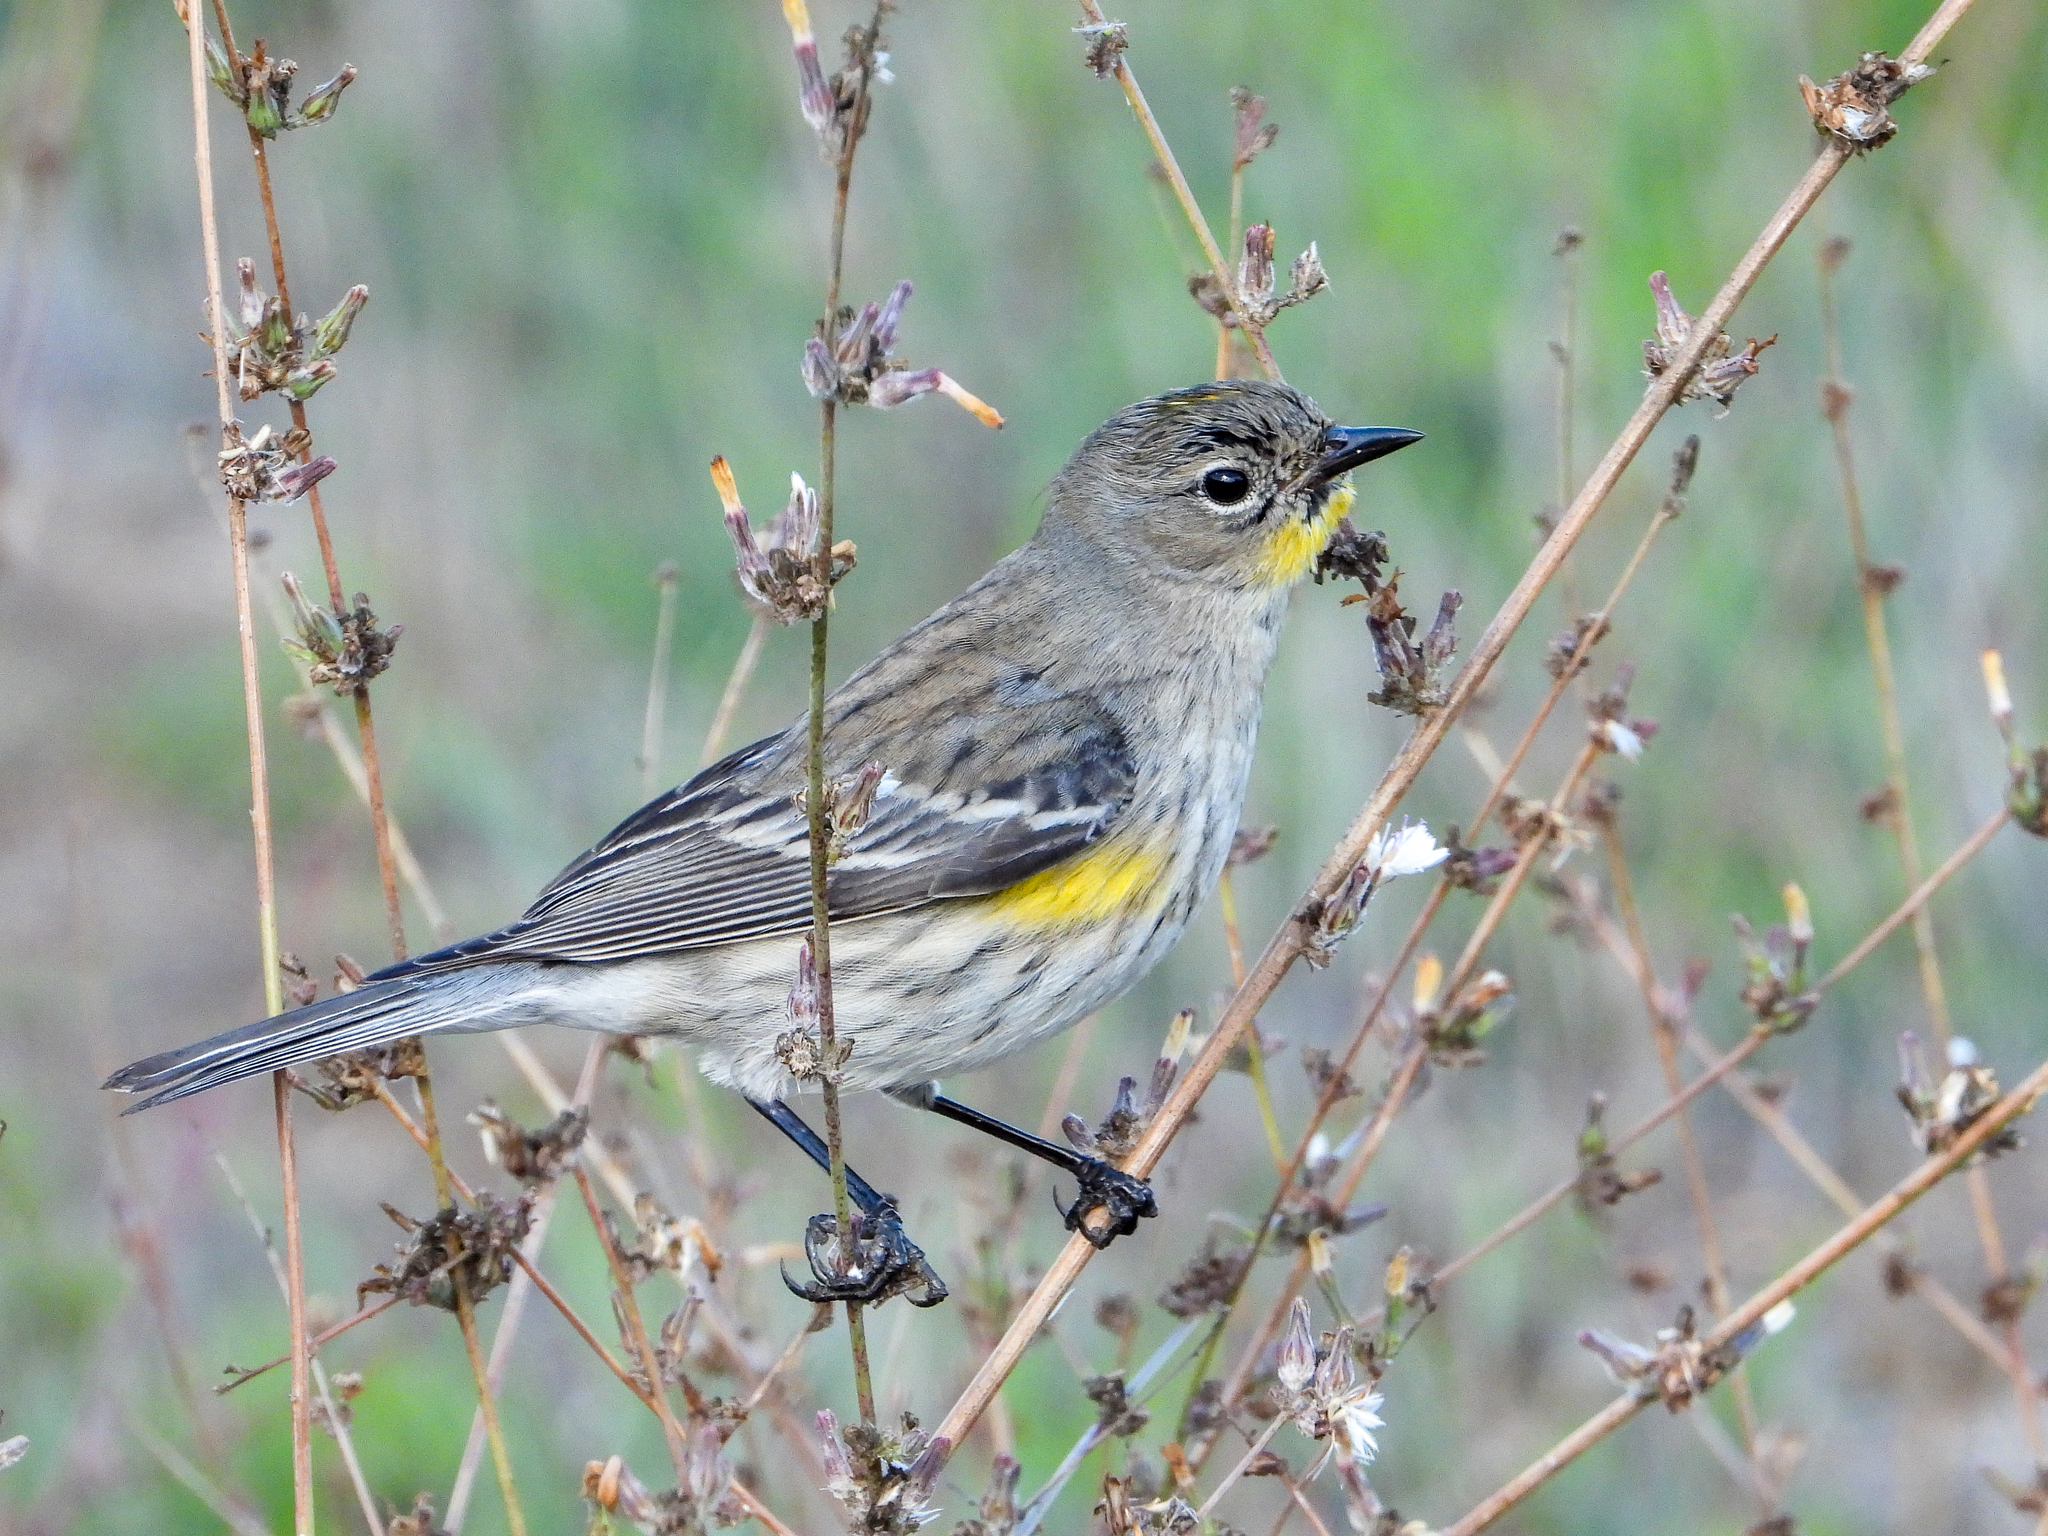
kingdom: Animalia
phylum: Chordata
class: Aves
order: Passeriformes
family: Parulidae
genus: Setophaga
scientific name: Setophaga coronata
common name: Myrtle warbler
